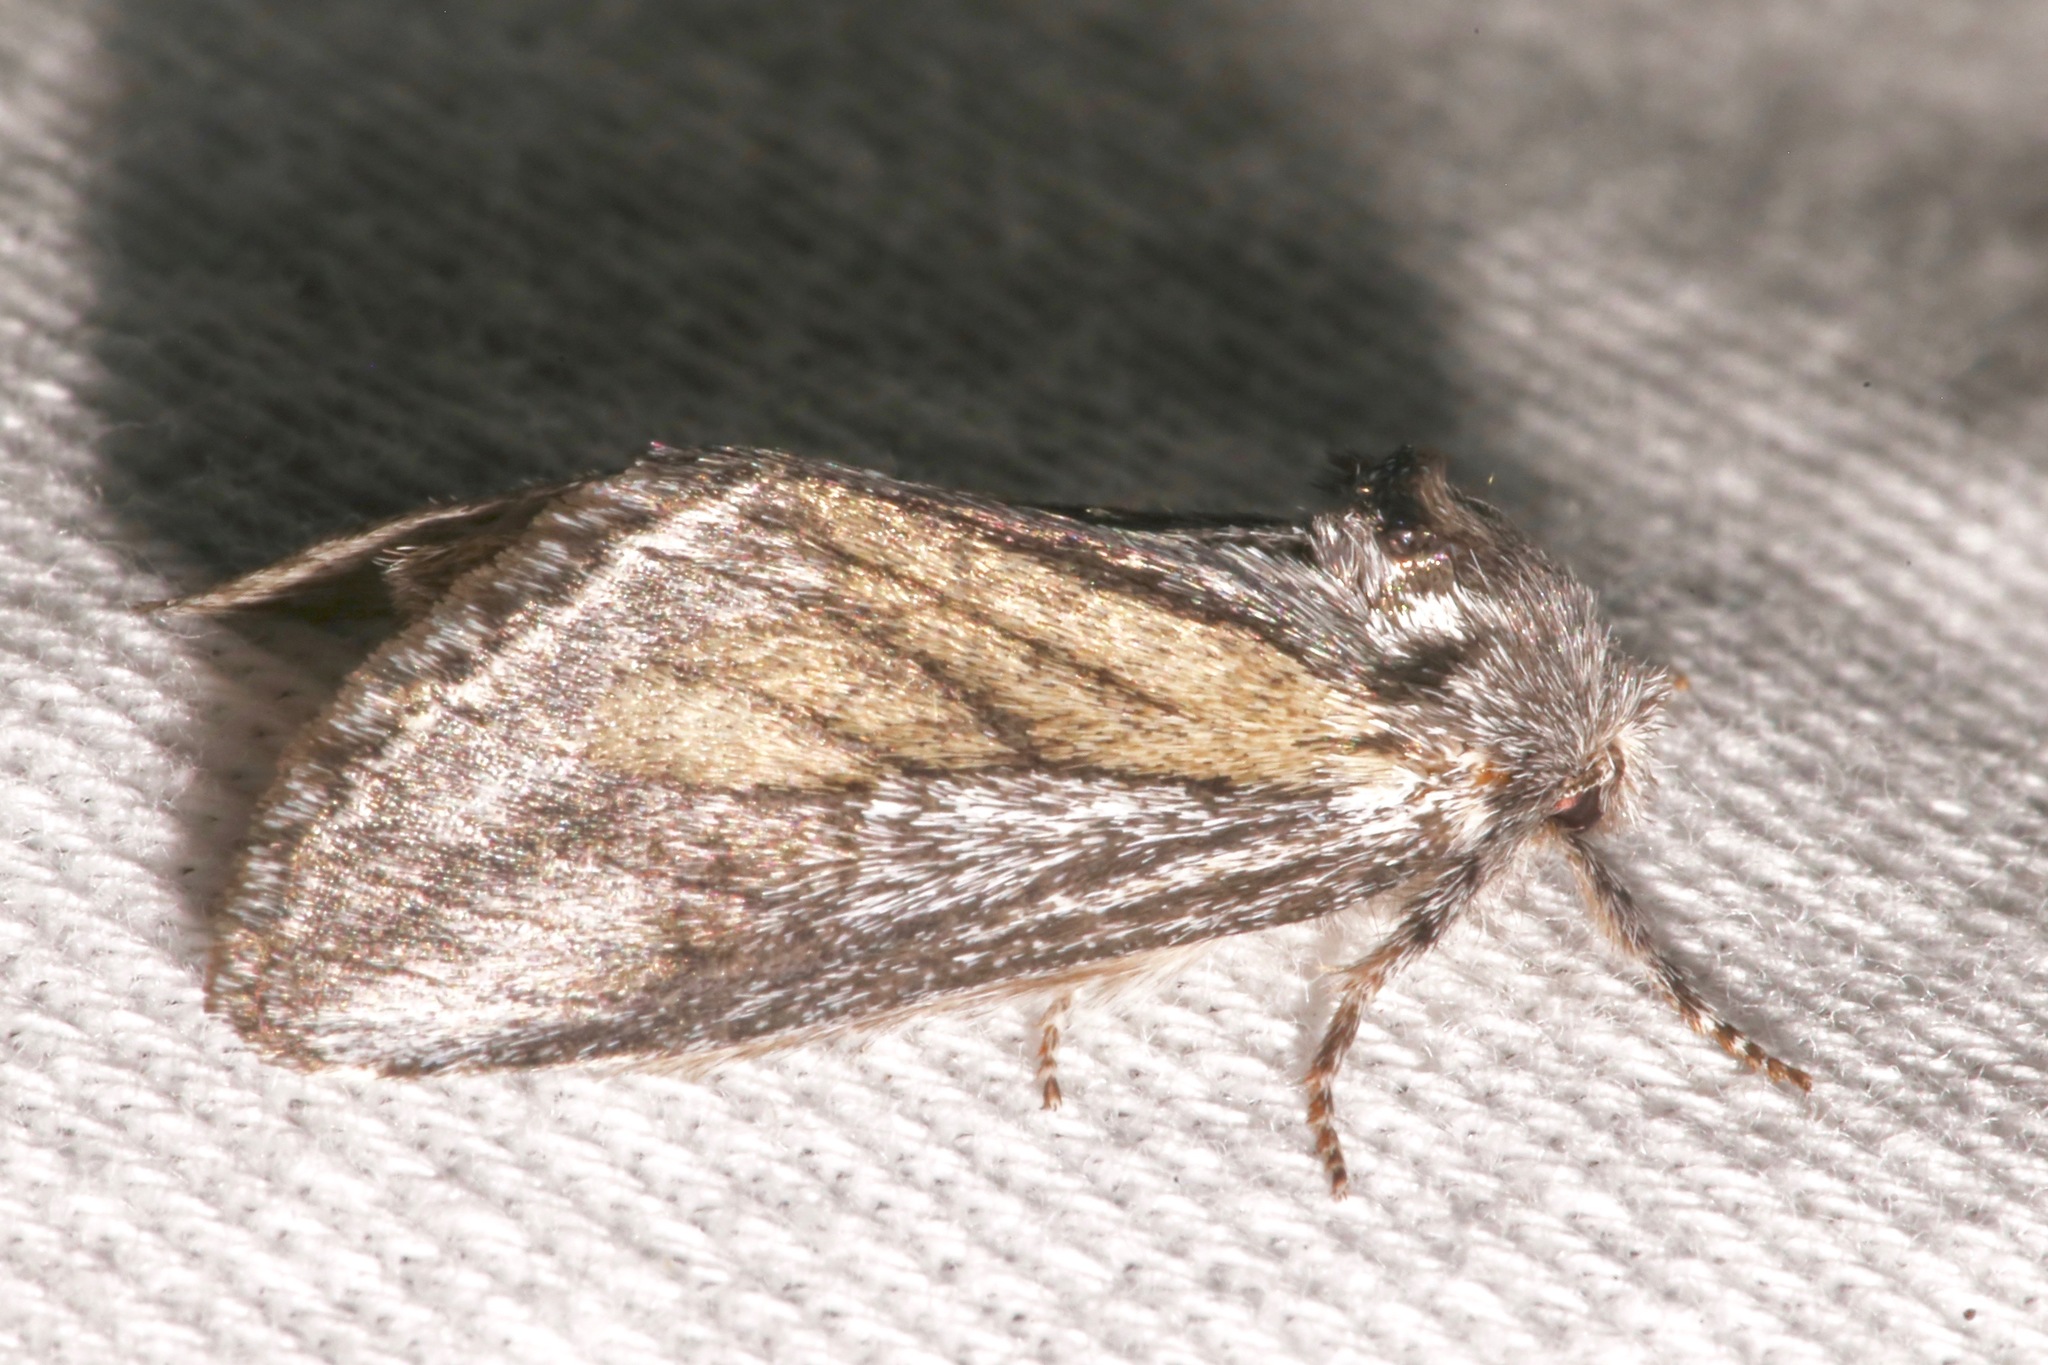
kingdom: Animalia
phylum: Arthropoda
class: Insecta
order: Lepidoptera
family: Notodontidae
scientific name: Notodontidae
